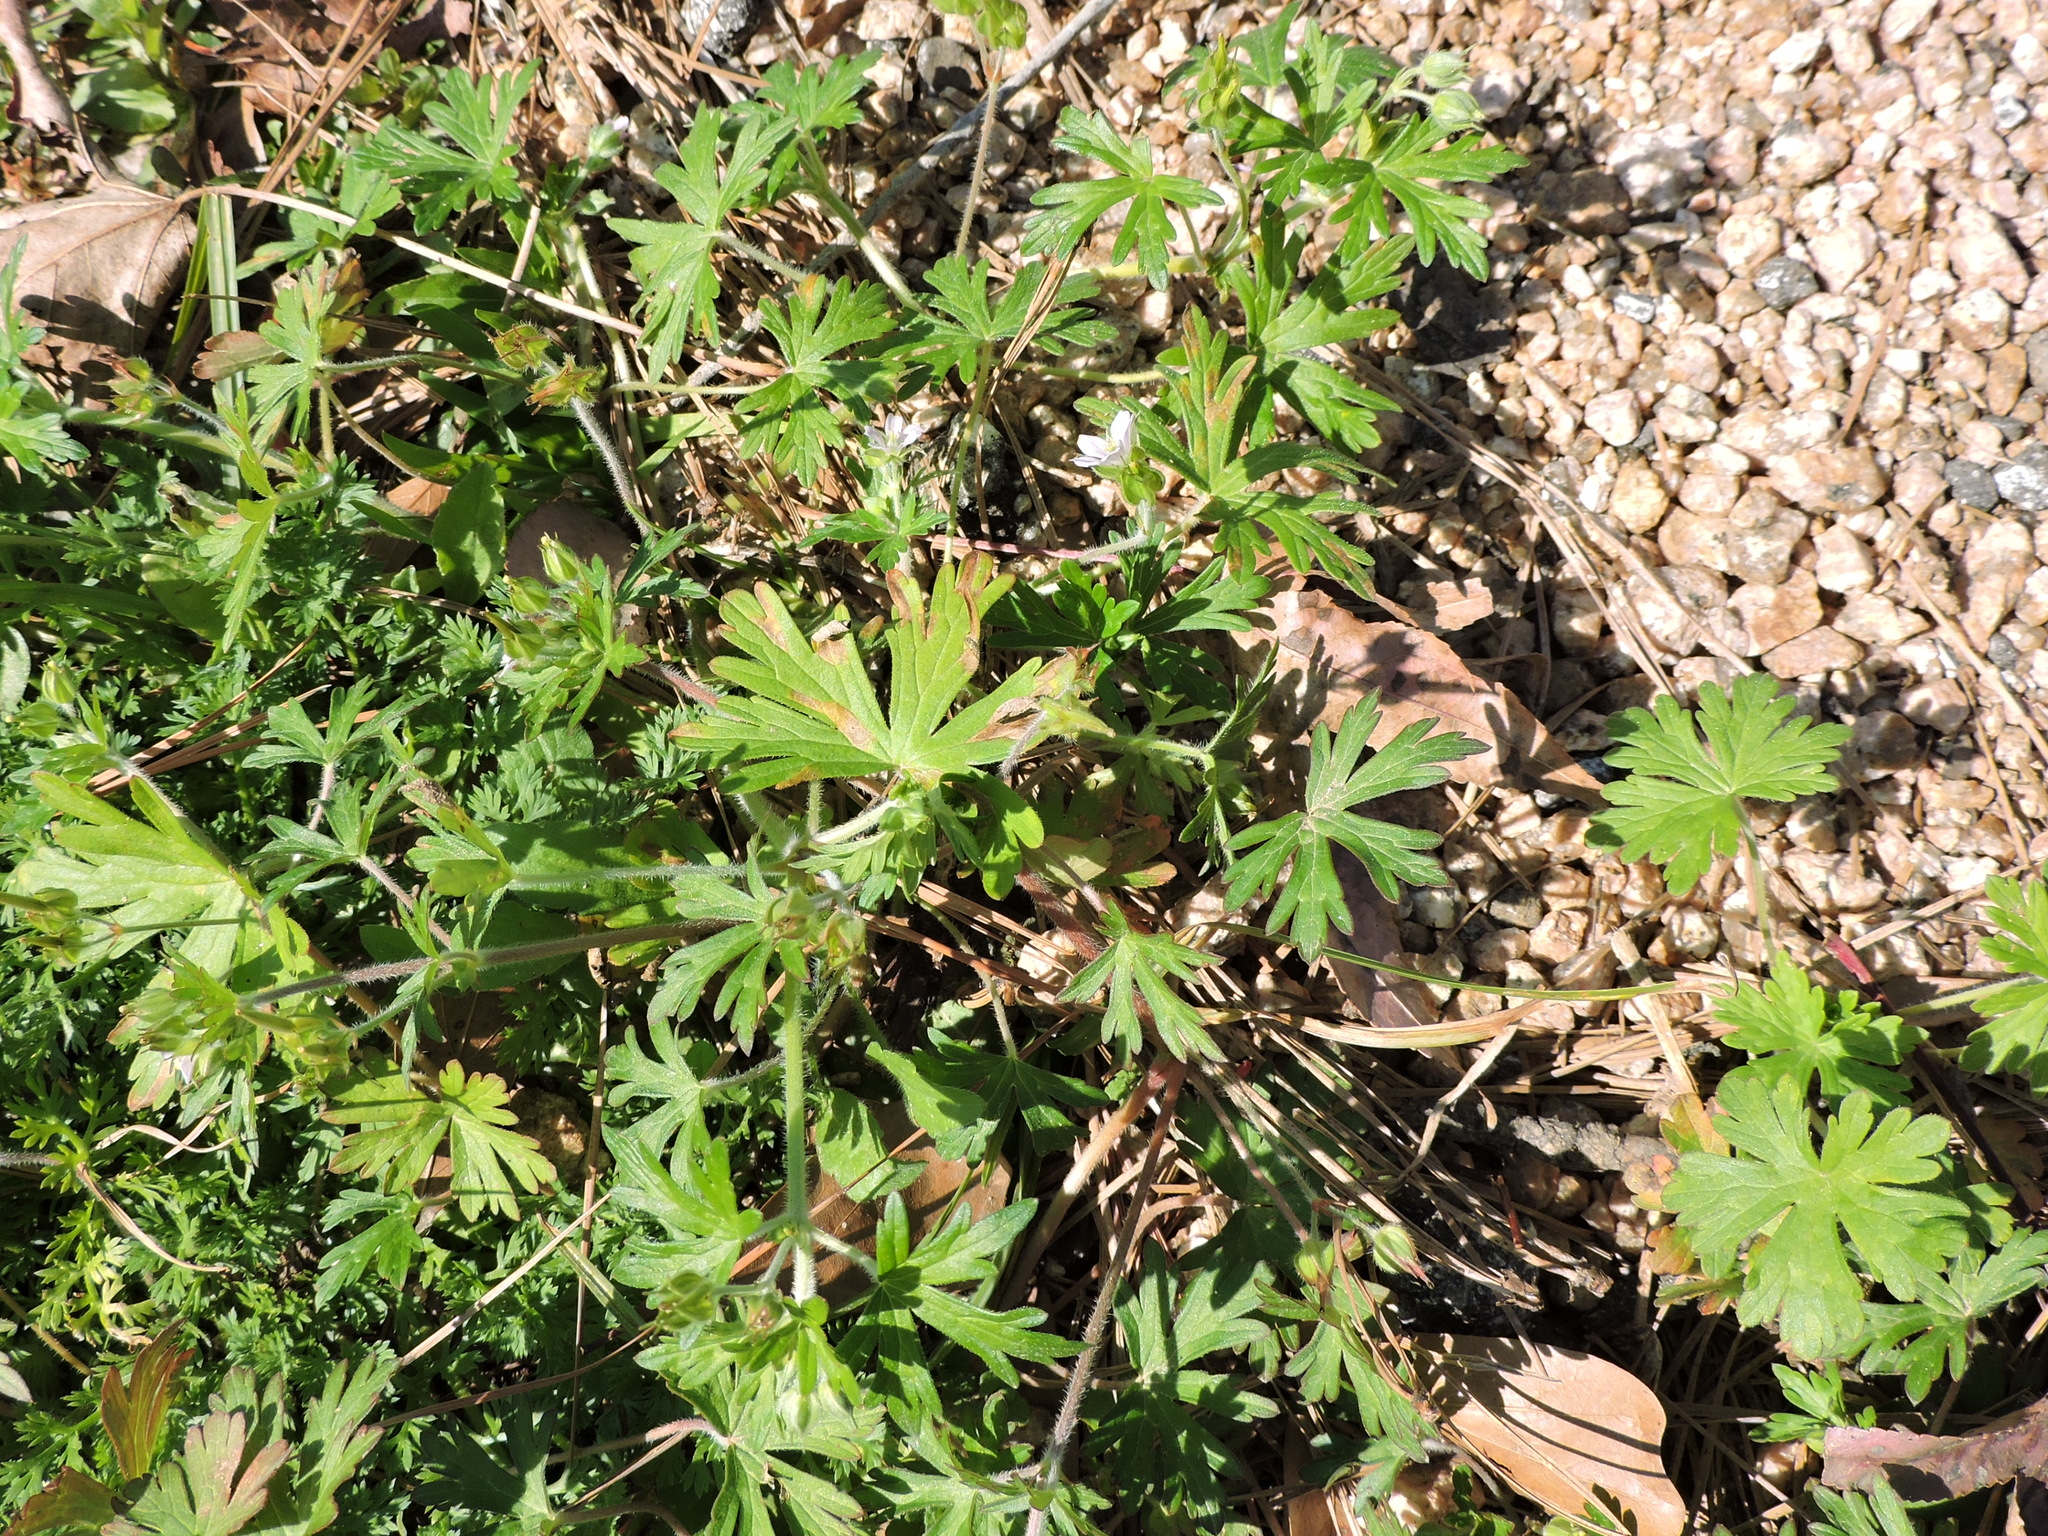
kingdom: Plantae
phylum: Tracheophyta
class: Magnoliopsida
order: Geraniales
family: Geraniaceae
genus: Geranium
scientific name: Geranium carolinianum
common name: Carolina crane's-bill
